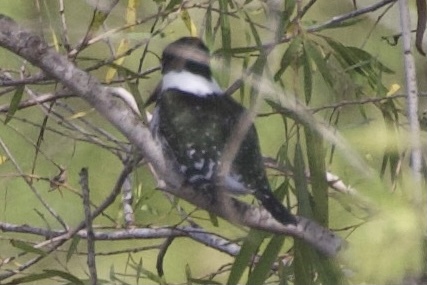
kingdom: Animalia
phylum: Chordata
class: Aves
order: Coraciiformes
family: Alcedinidae
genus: Chloroceryle
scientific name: Chloroceryle americana
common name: Green kingfisher
